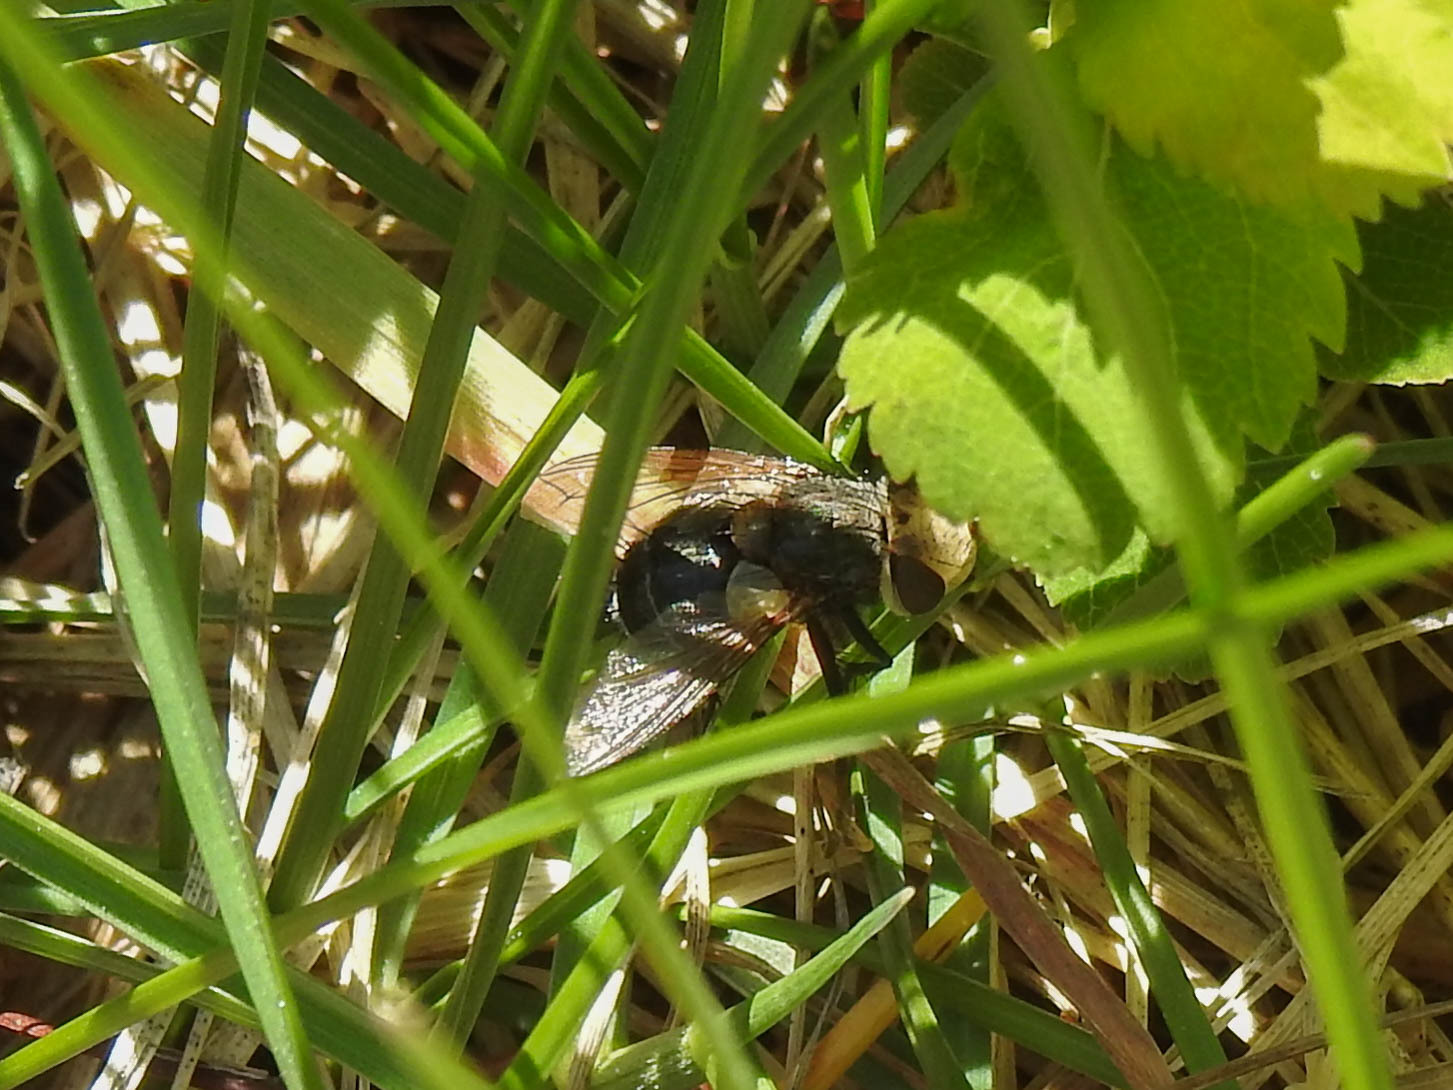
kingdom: Animalia
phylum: Arthropoda
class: Insecta
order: Diptera
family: Tachinidae
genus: Epalpus
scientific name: Epalpus signifer
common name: Early tachinid fly
